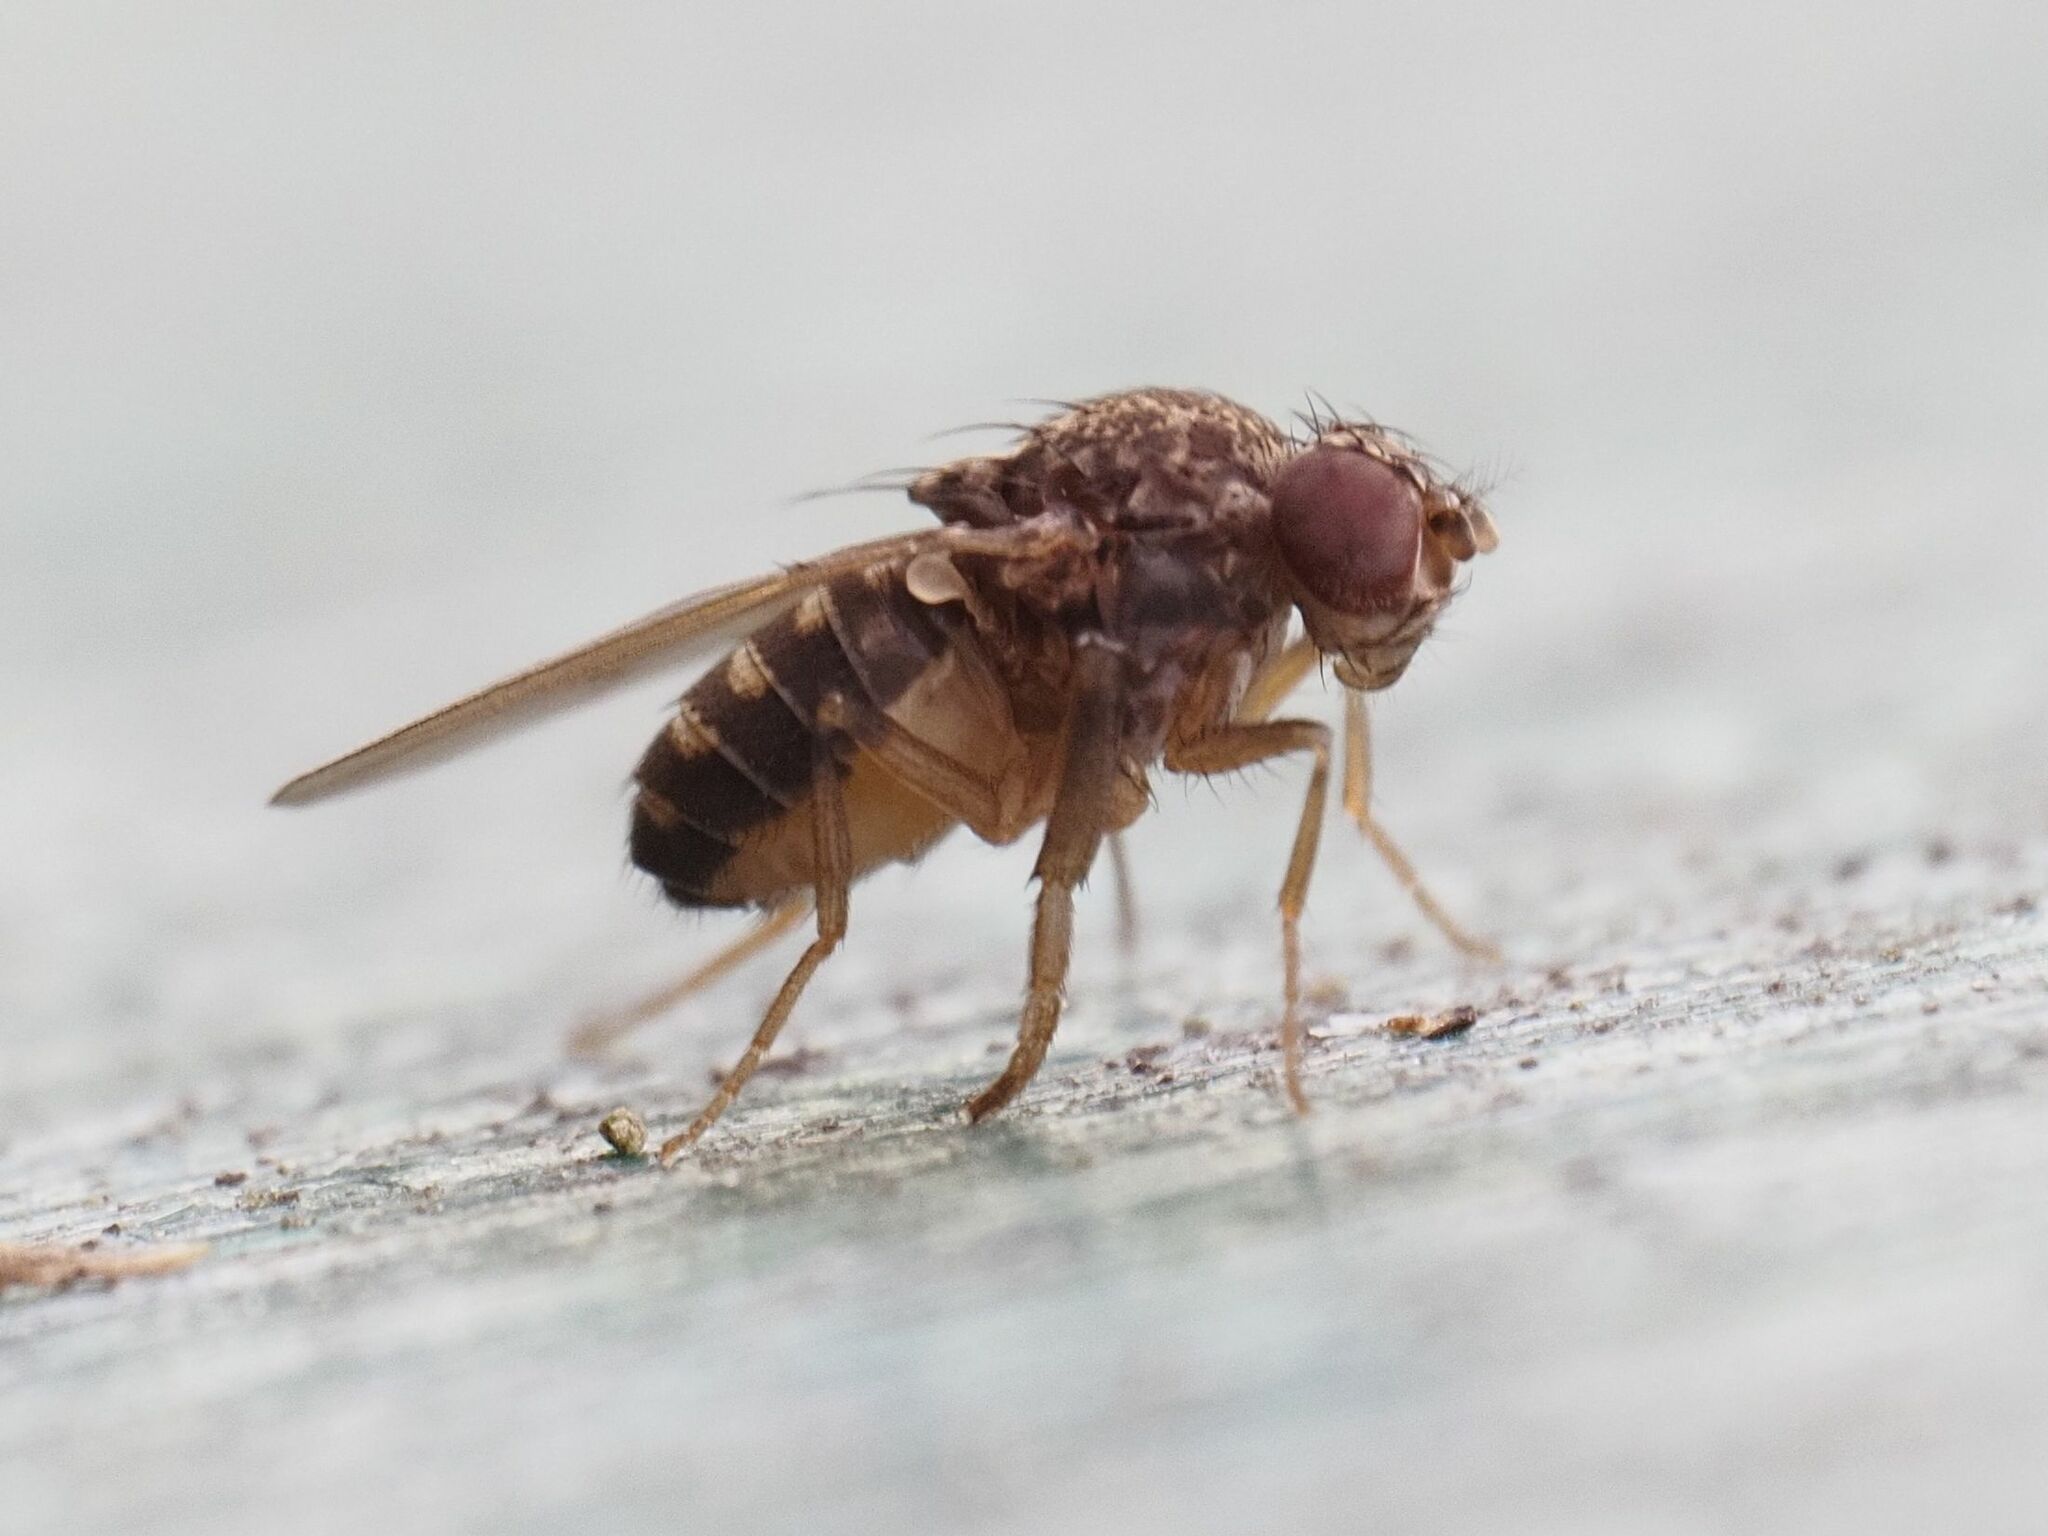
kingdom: Animalia
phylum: Arthropoda
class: Insecta
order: Diptera
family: Drosophilidae
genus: Drosophila
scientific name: Drosophila hydei
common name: Pomace fly
